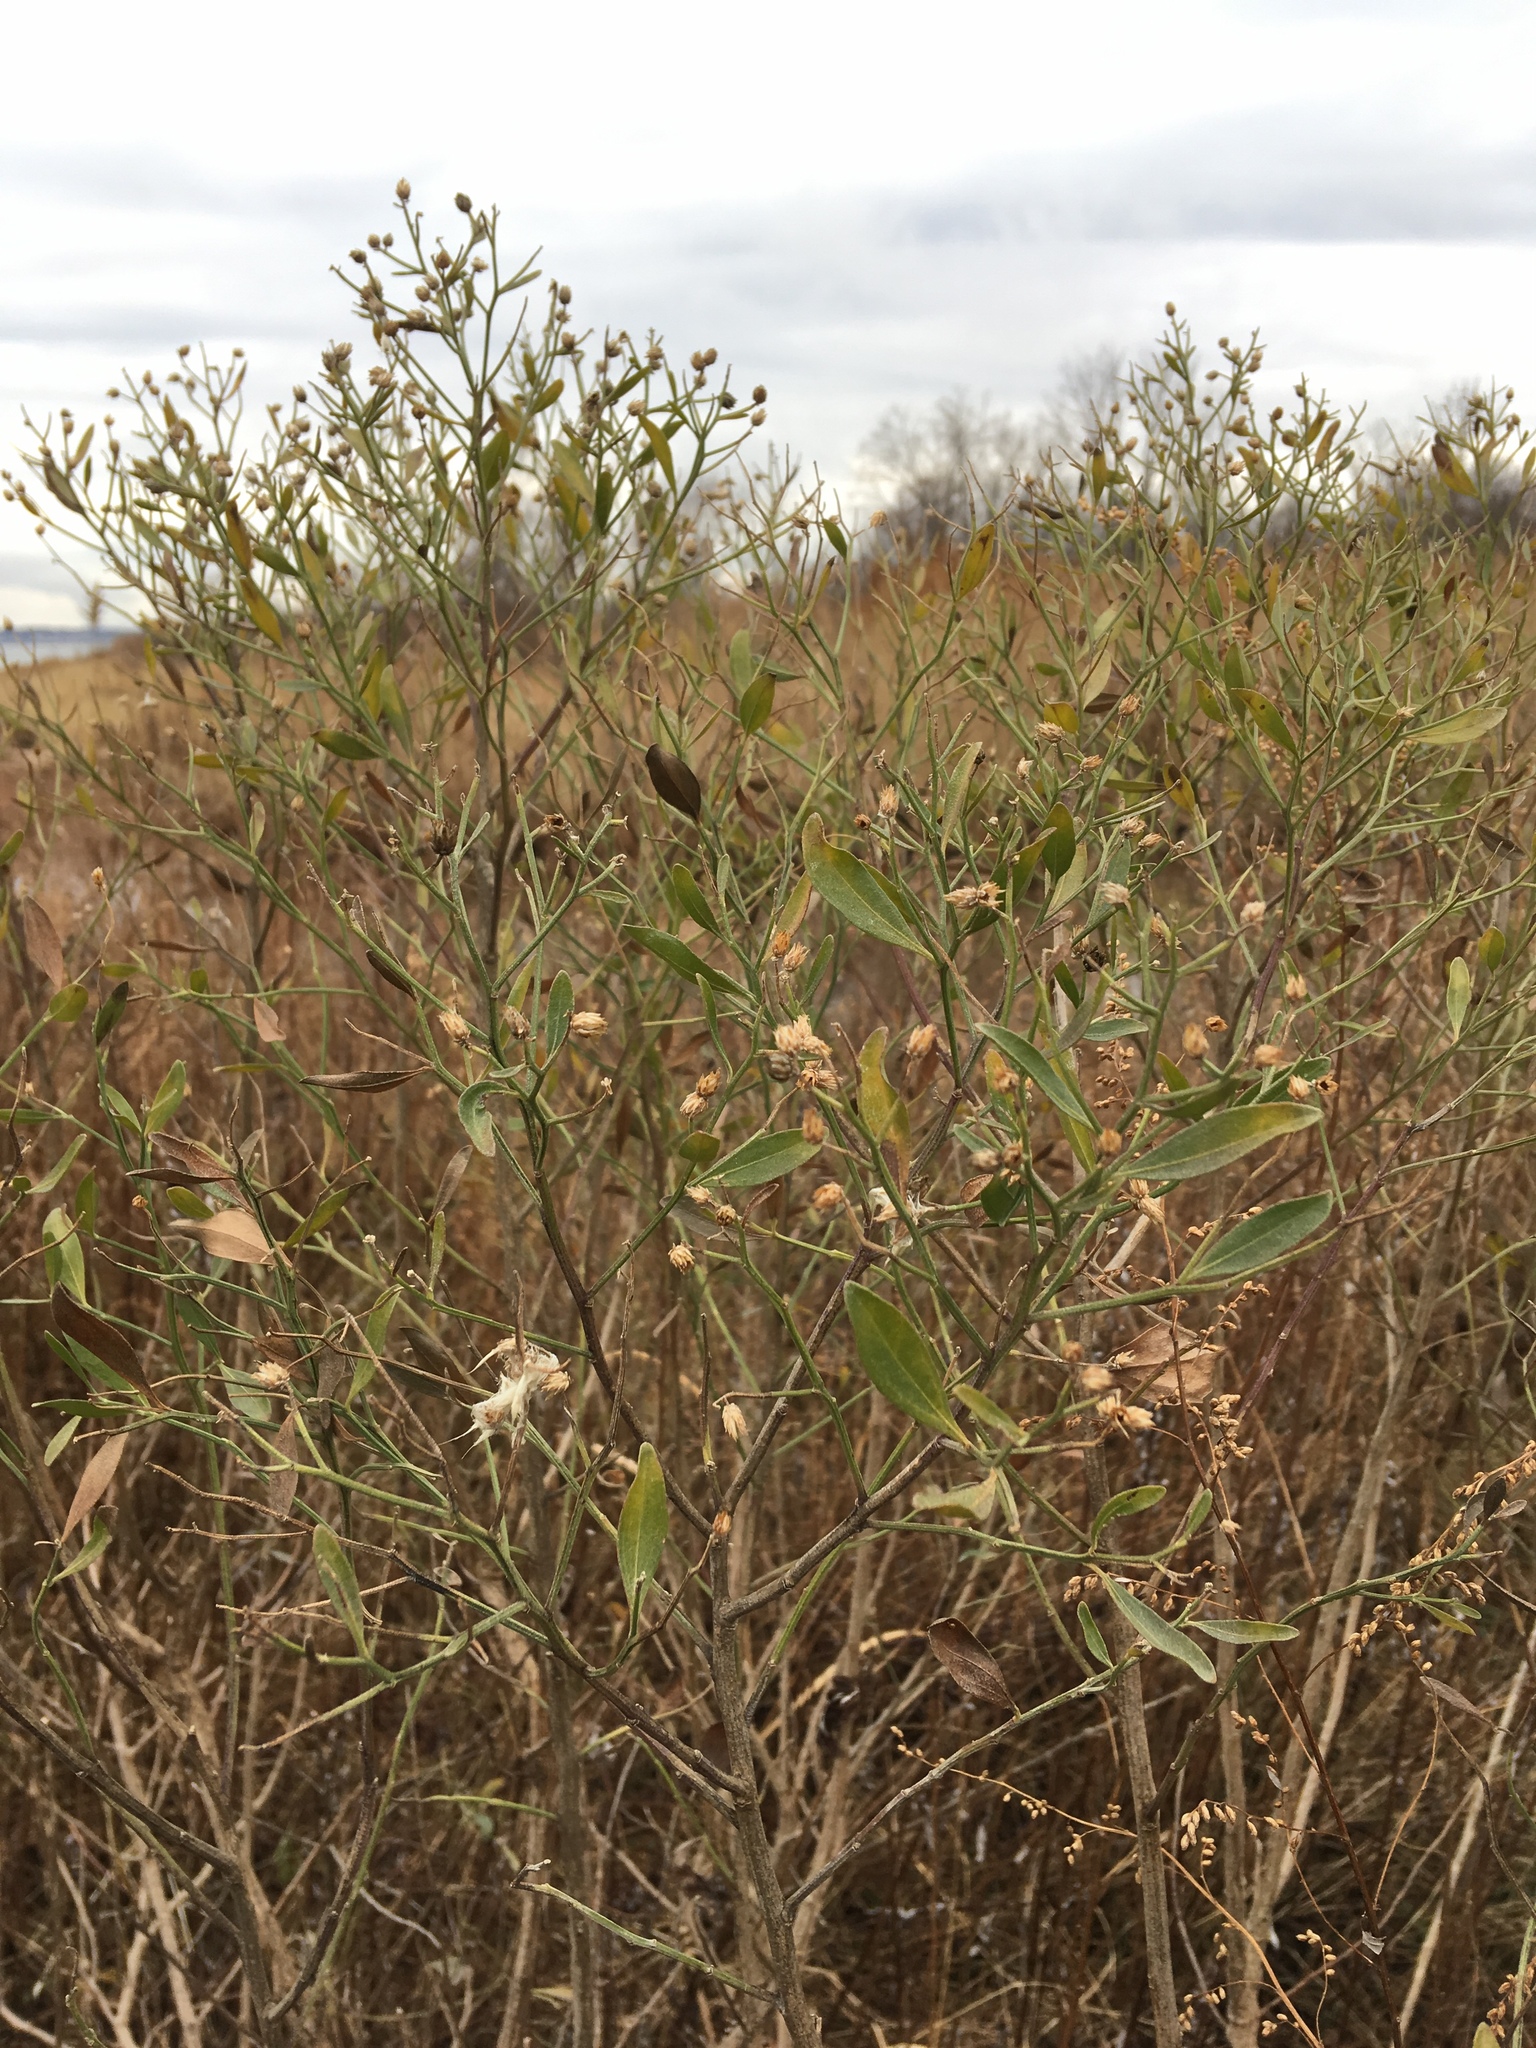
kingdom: Plantae
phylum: Tracheophyta
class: Magnoliopsida
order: Asterales
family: Asteraceae
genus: Baccharis
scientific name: Baccharis halimifolia
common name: Eastern baccharis
